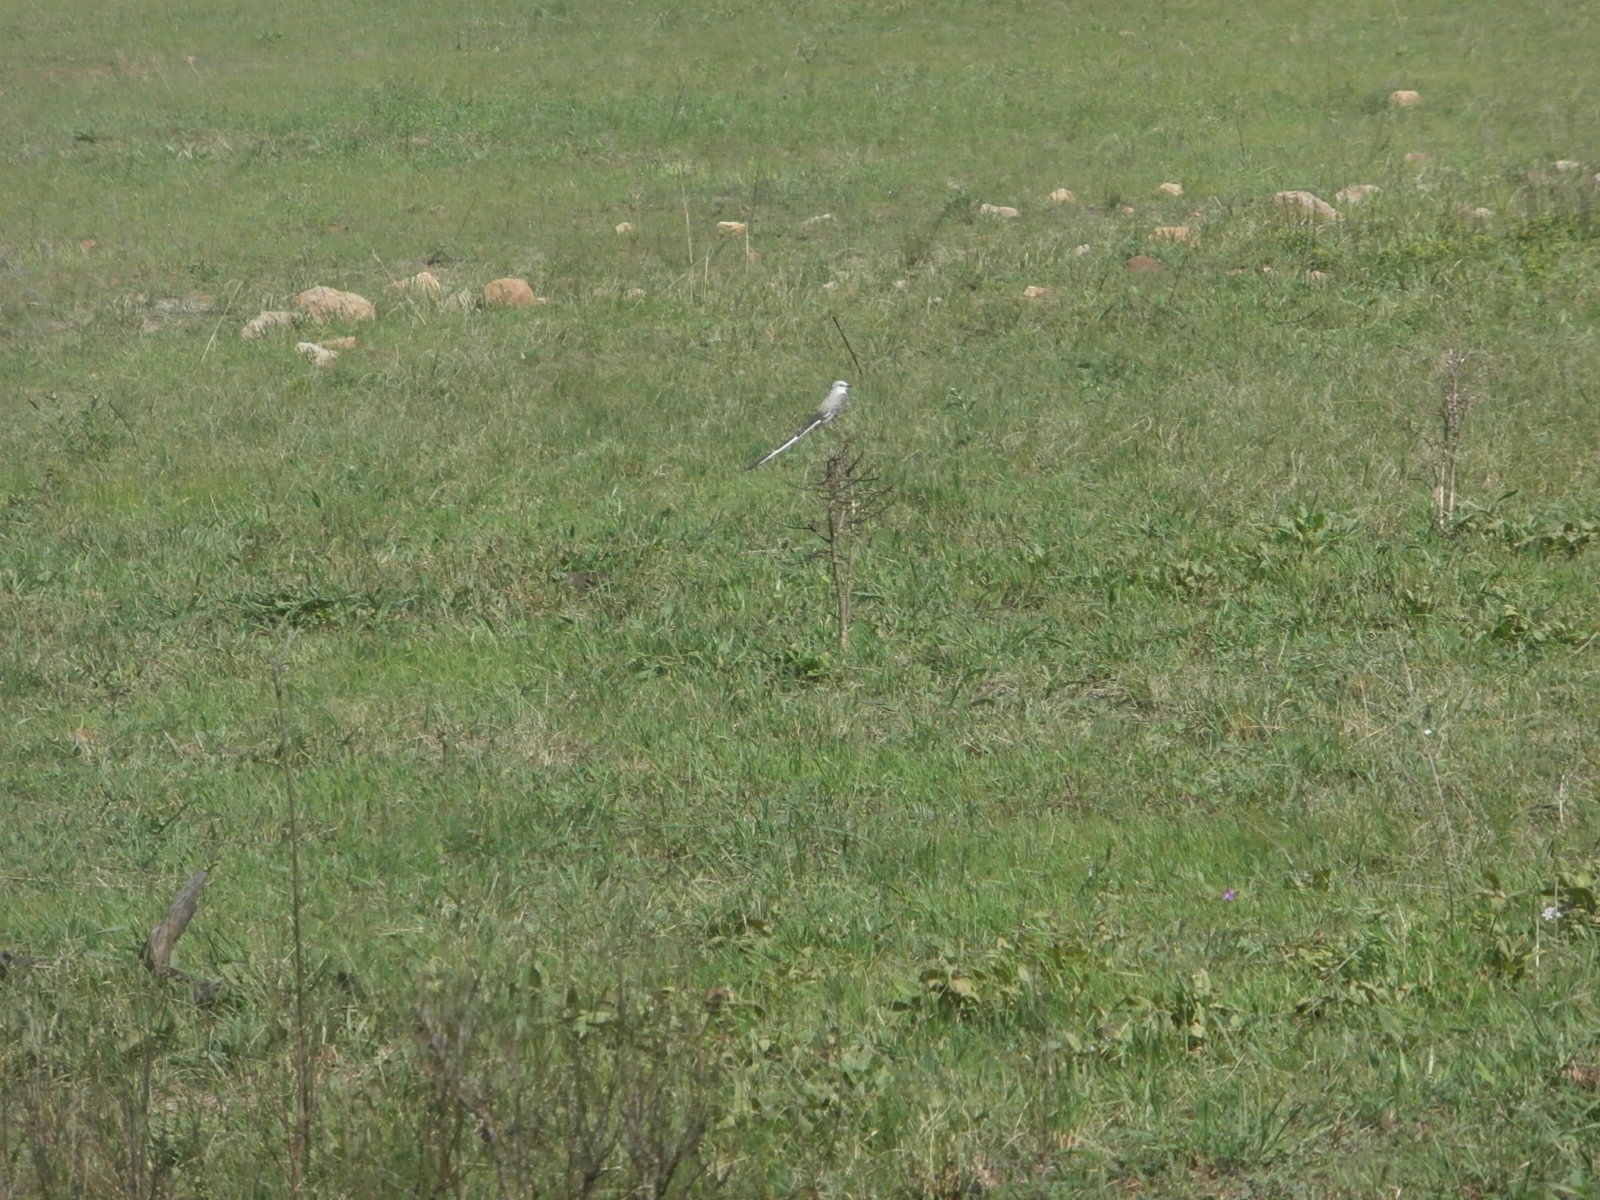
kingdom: Animalia
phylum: Chordata
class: Aves
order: Passeriformes
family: Tyrannidae
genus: Tyrannus
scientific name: Tyrannus forficatus
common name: Scissor-tailed flycatcher
